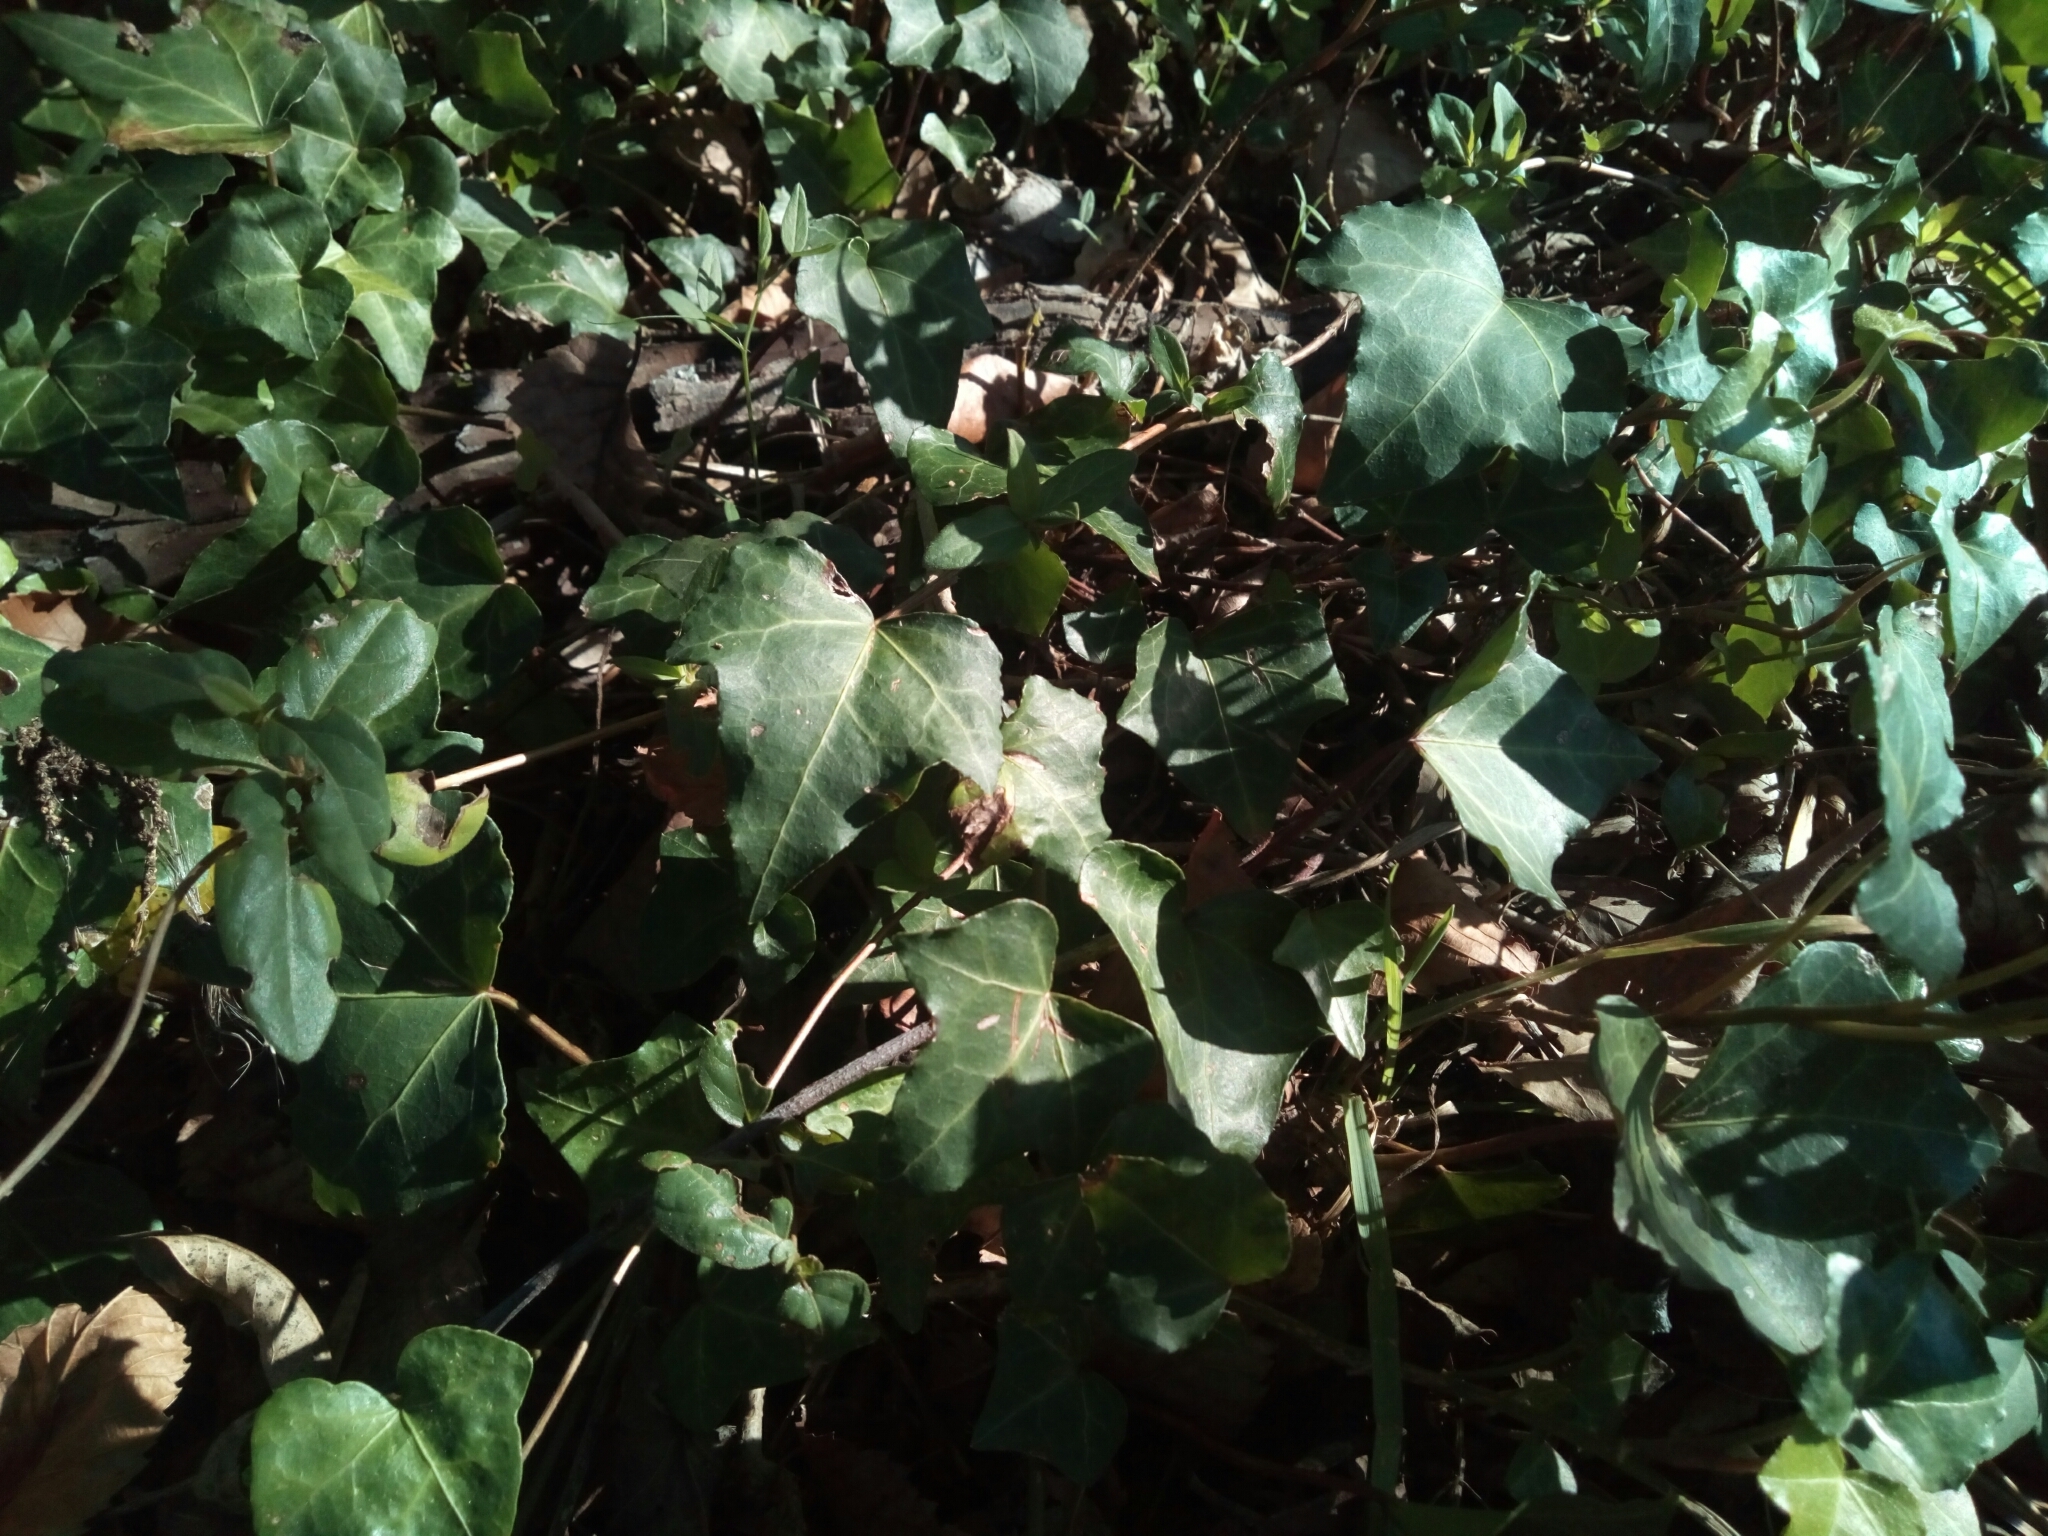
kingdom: Plantae
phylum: Tracheophyta
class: Magnoliopsida
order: Apiales
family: Araliaceae
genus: Hedera
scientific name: Hedera helix
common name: Ivy
